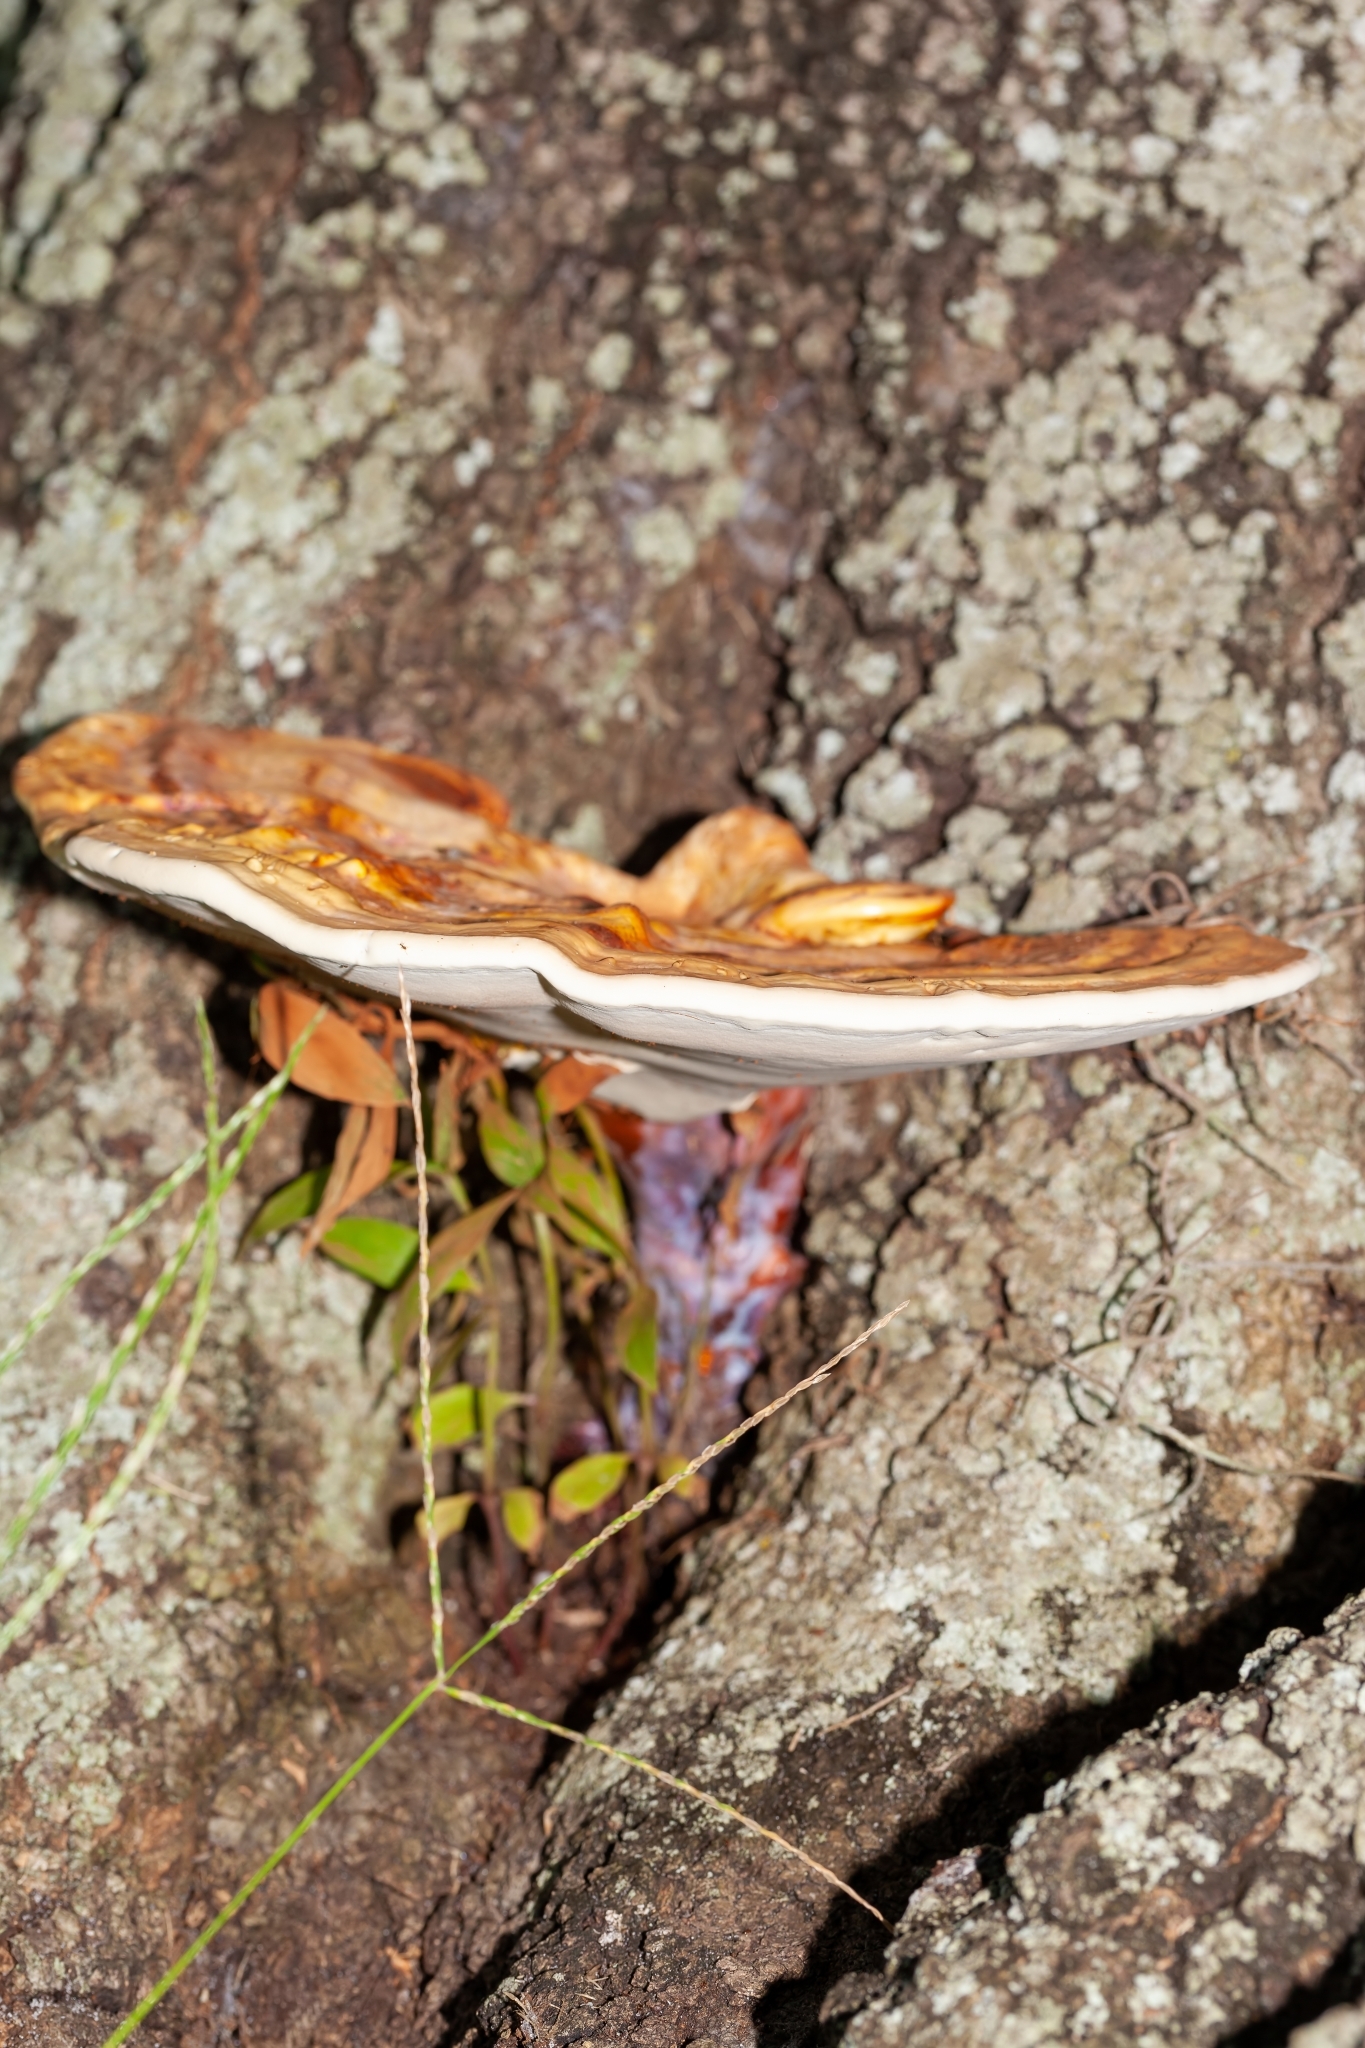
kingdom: Fungi
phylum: Basidiomycota
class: Agaricomycetes
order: Polyporales
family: Polyporaceae
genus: Ganoderma
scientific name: Ganoderma curtisii
